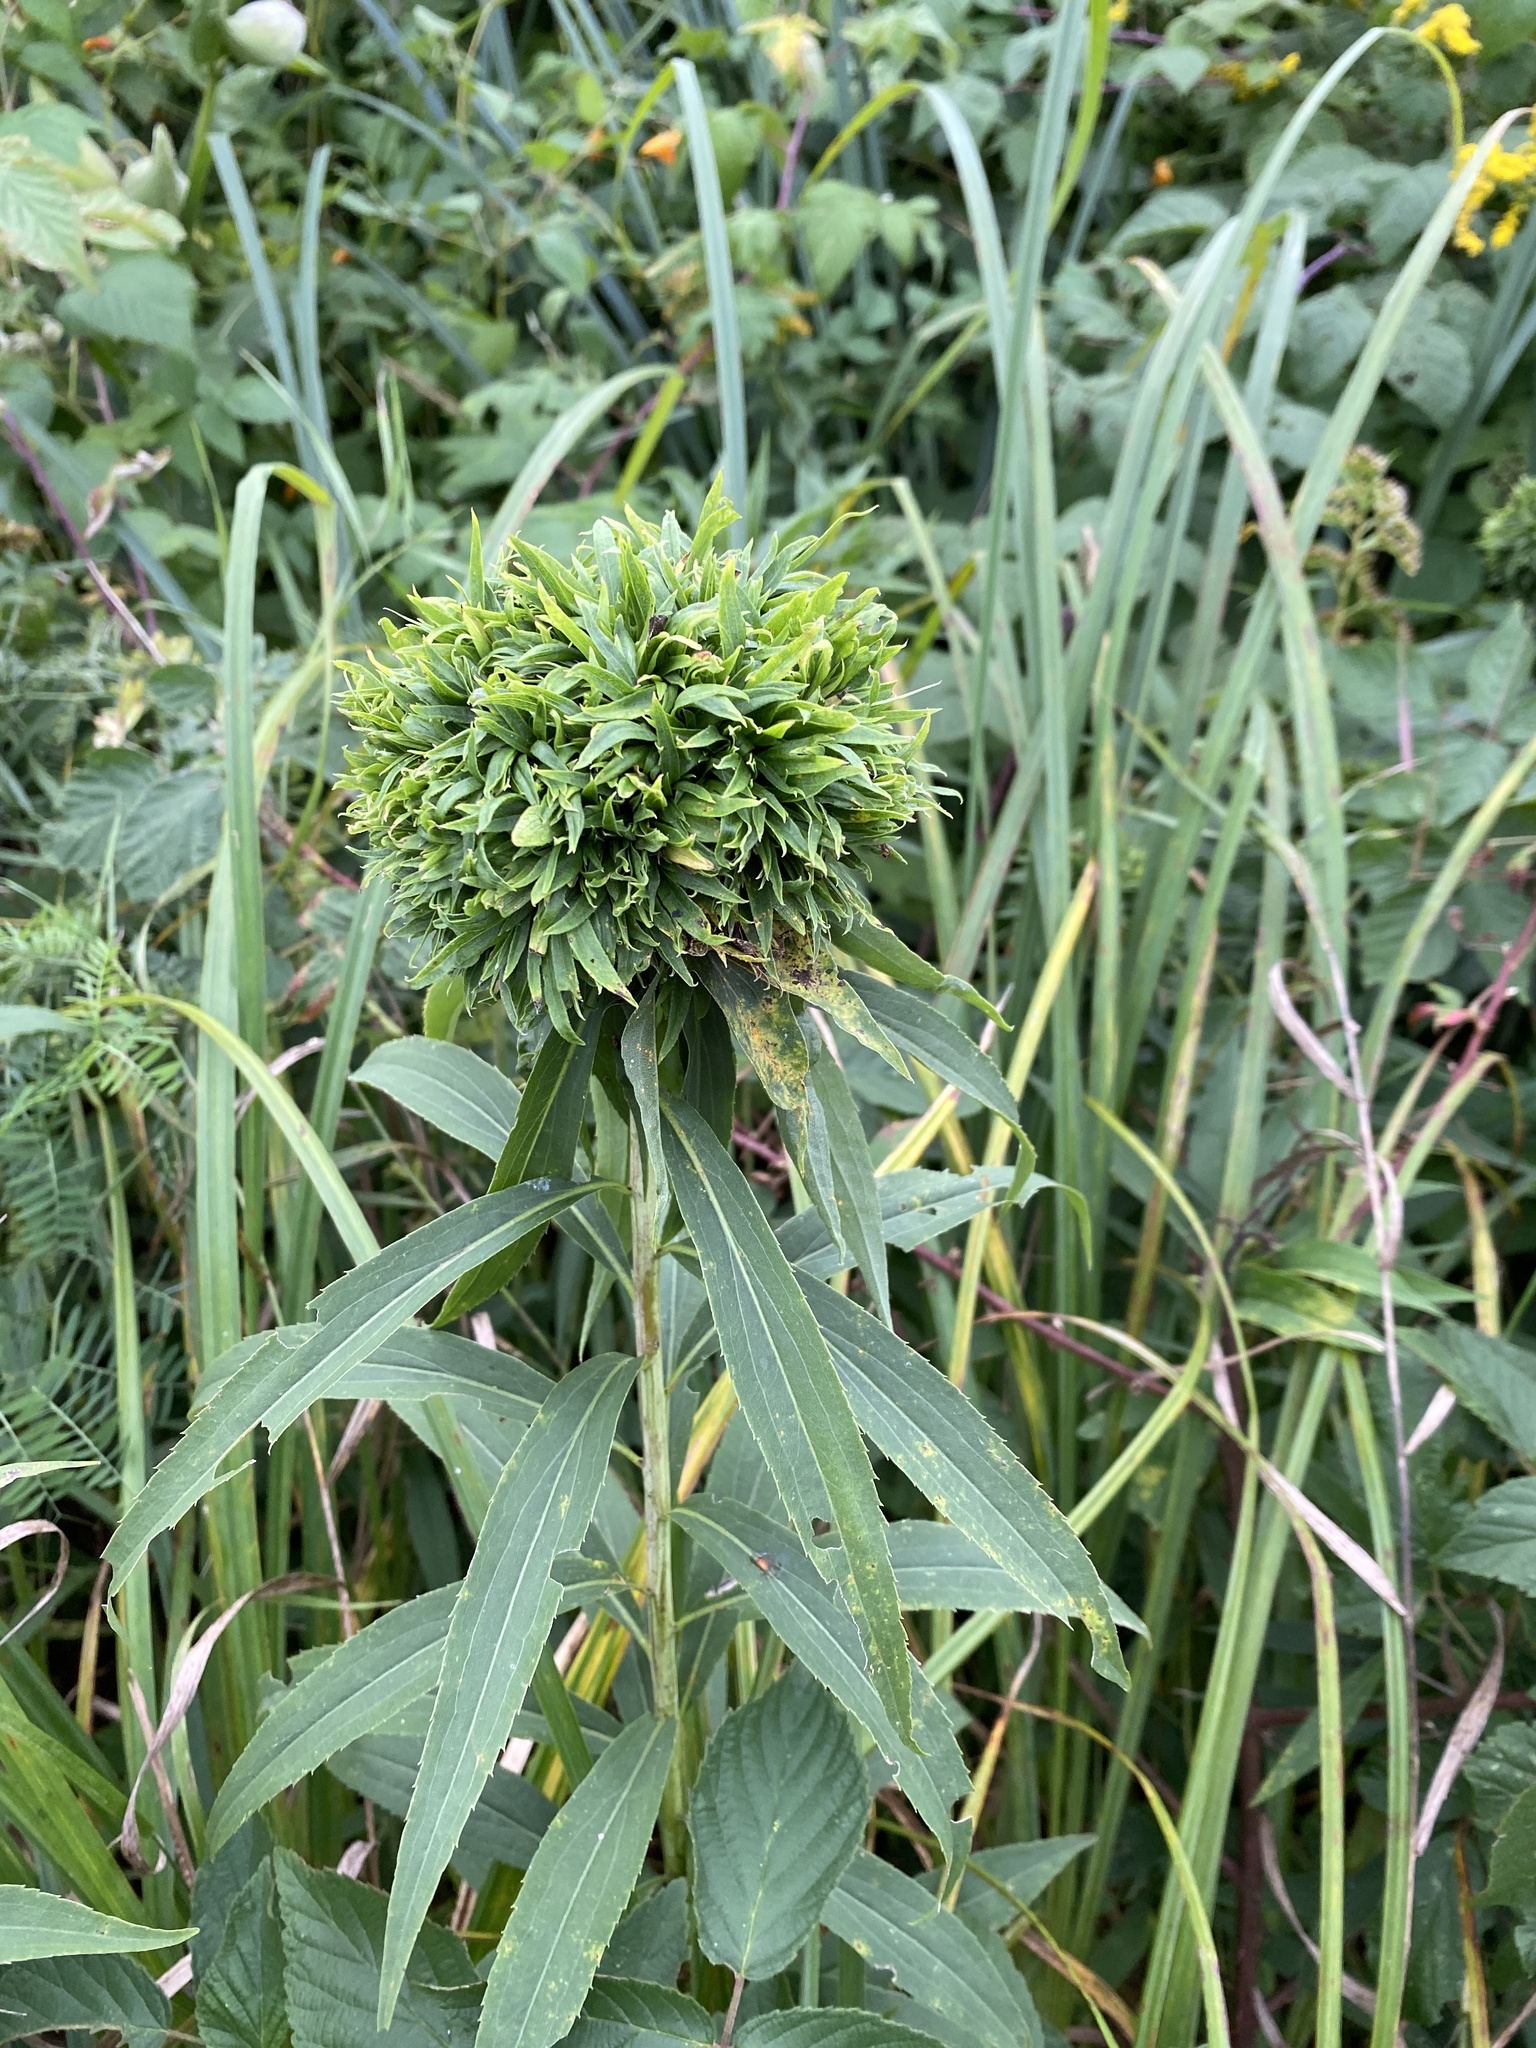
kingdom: Animalia
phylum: Arthropoda
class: Insecta
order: Diptera
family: Cecidomyiidae
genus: Rhopalomyia
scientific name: Rhopalomyia capitata
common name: Giant goldenrod bunch gall midge
